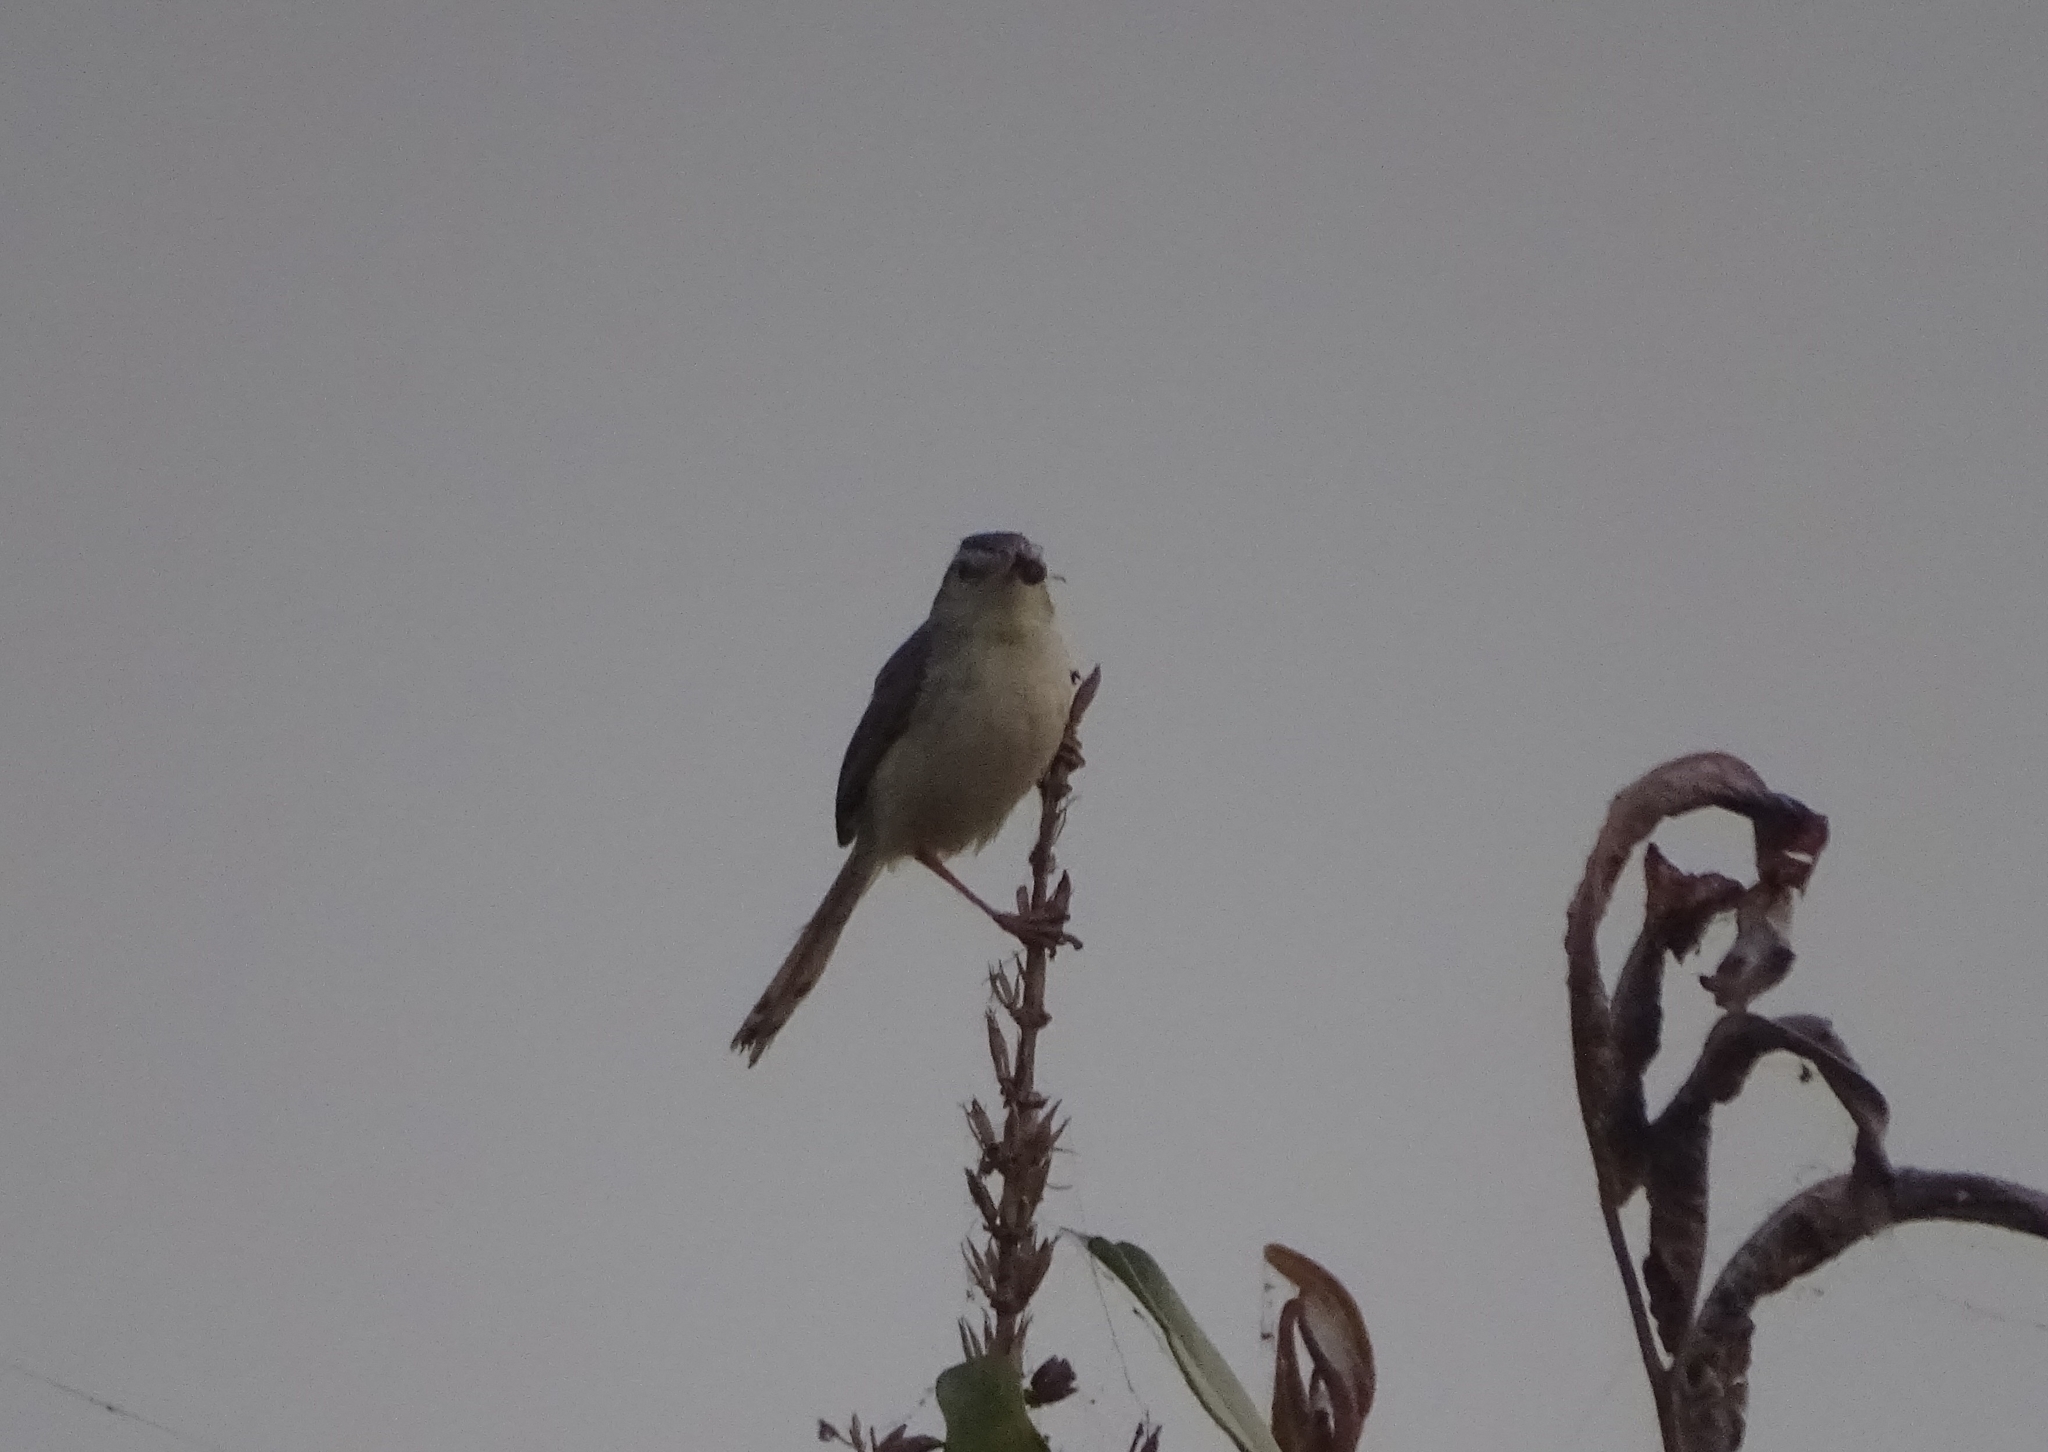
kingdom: Animalia
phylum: Chordata
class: Aves
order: Passeriformes
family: Cisticolidae
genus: Prinia
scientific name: Prinia inornata
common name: Plain prinia
